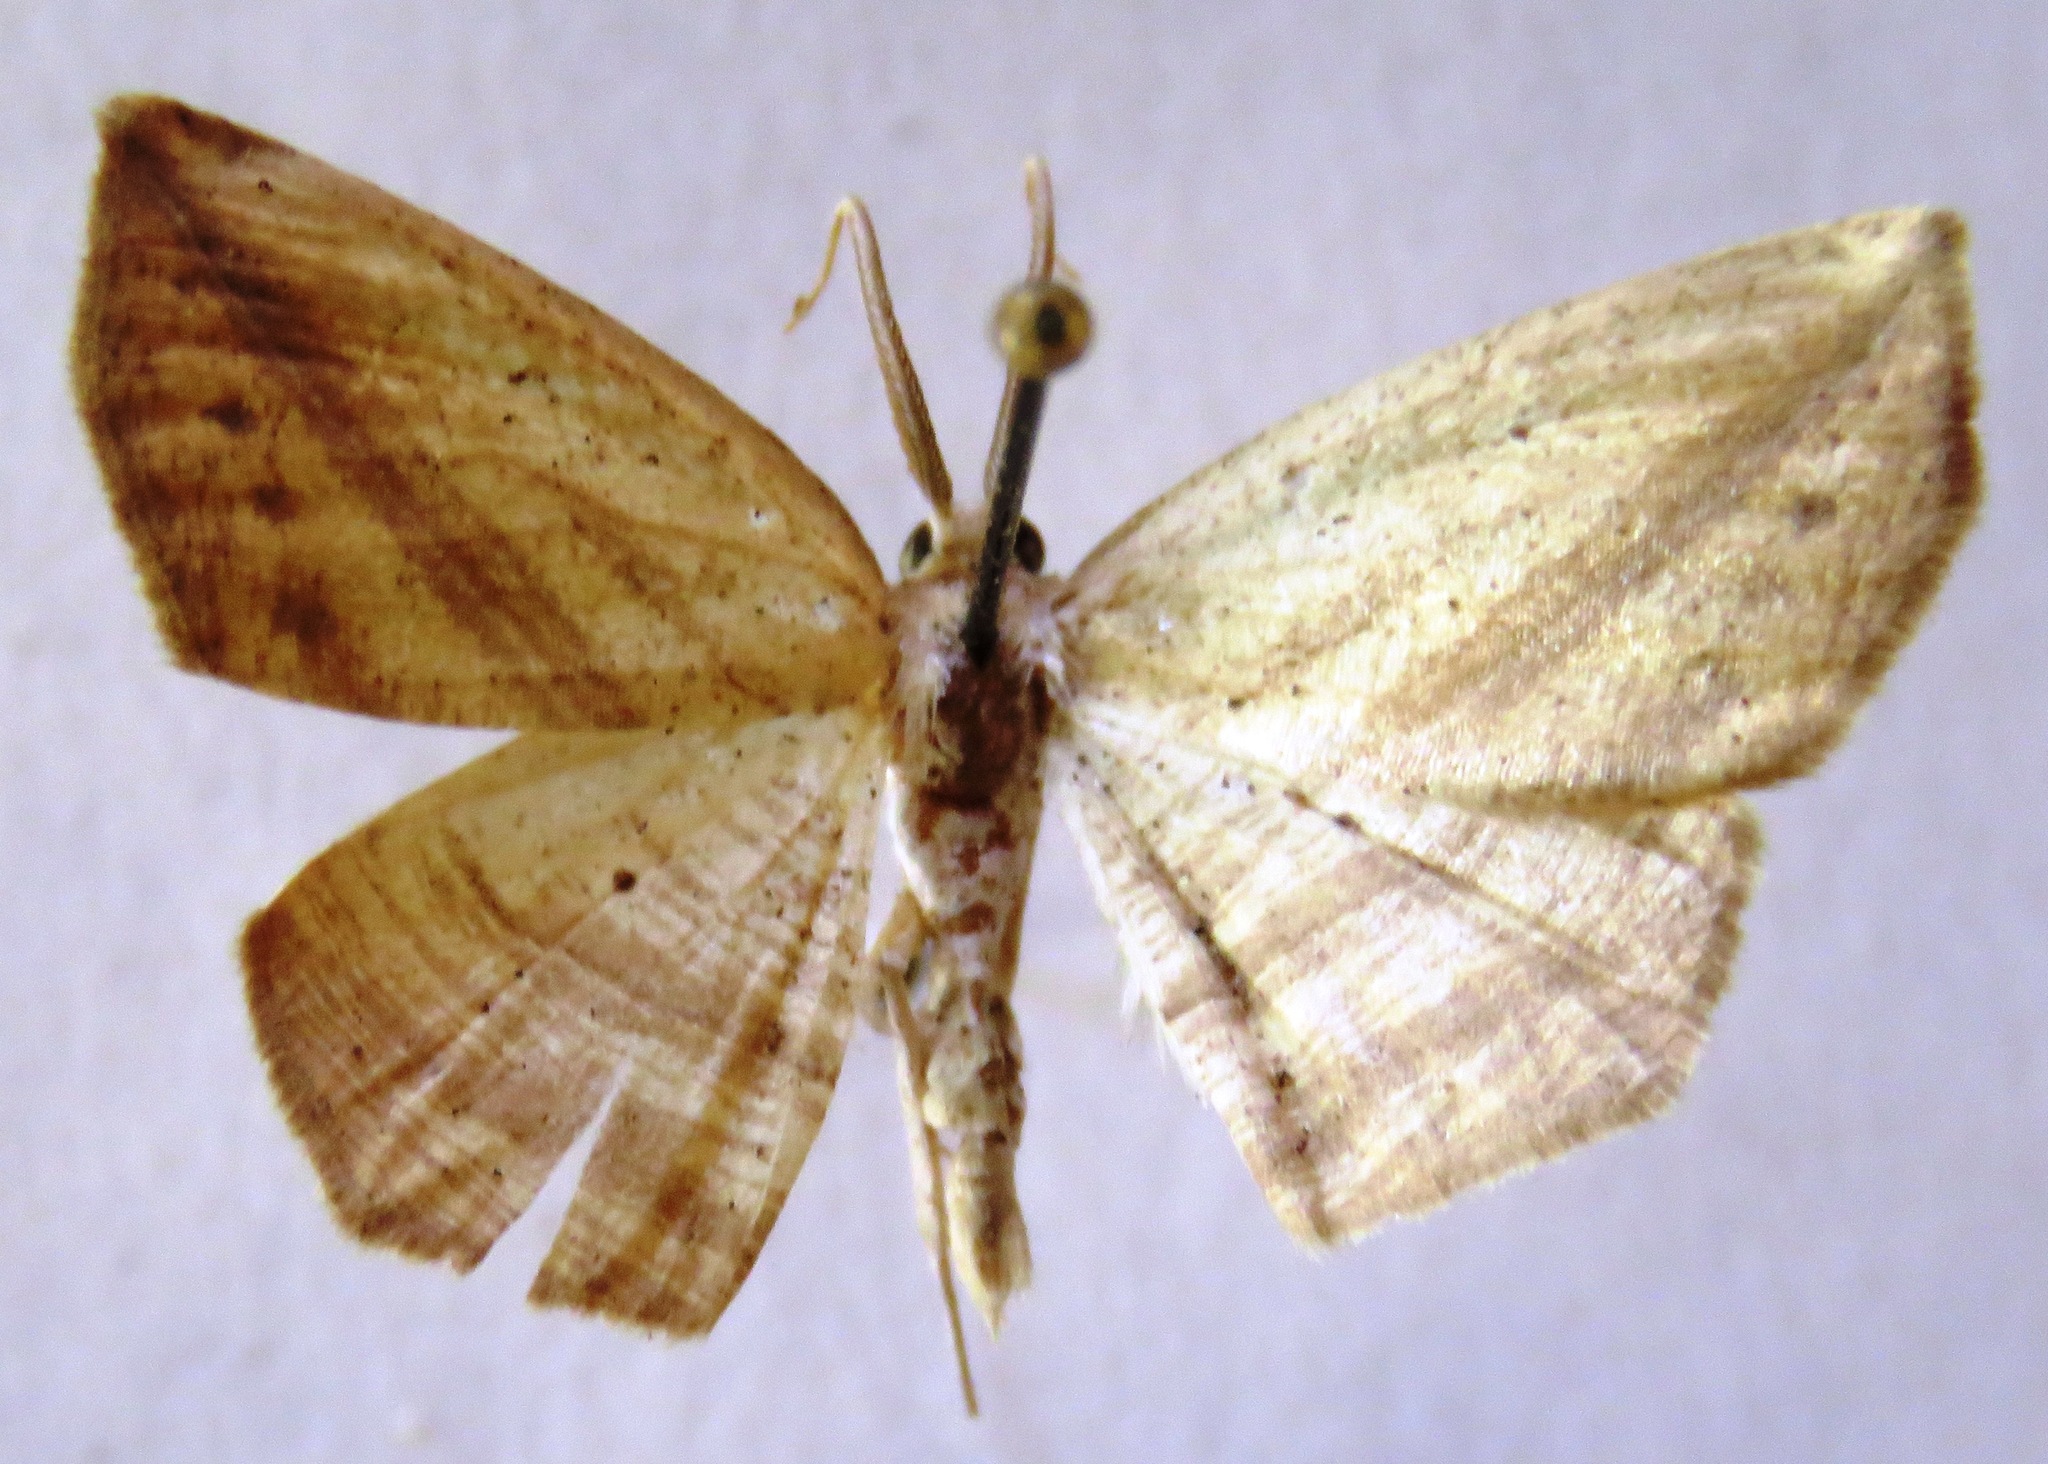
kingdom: Animalia
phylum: Arthropoda
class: Insecta
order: Lepidoptera
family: Geometridae
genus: Eusarca
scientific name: Eusarca flexilis
